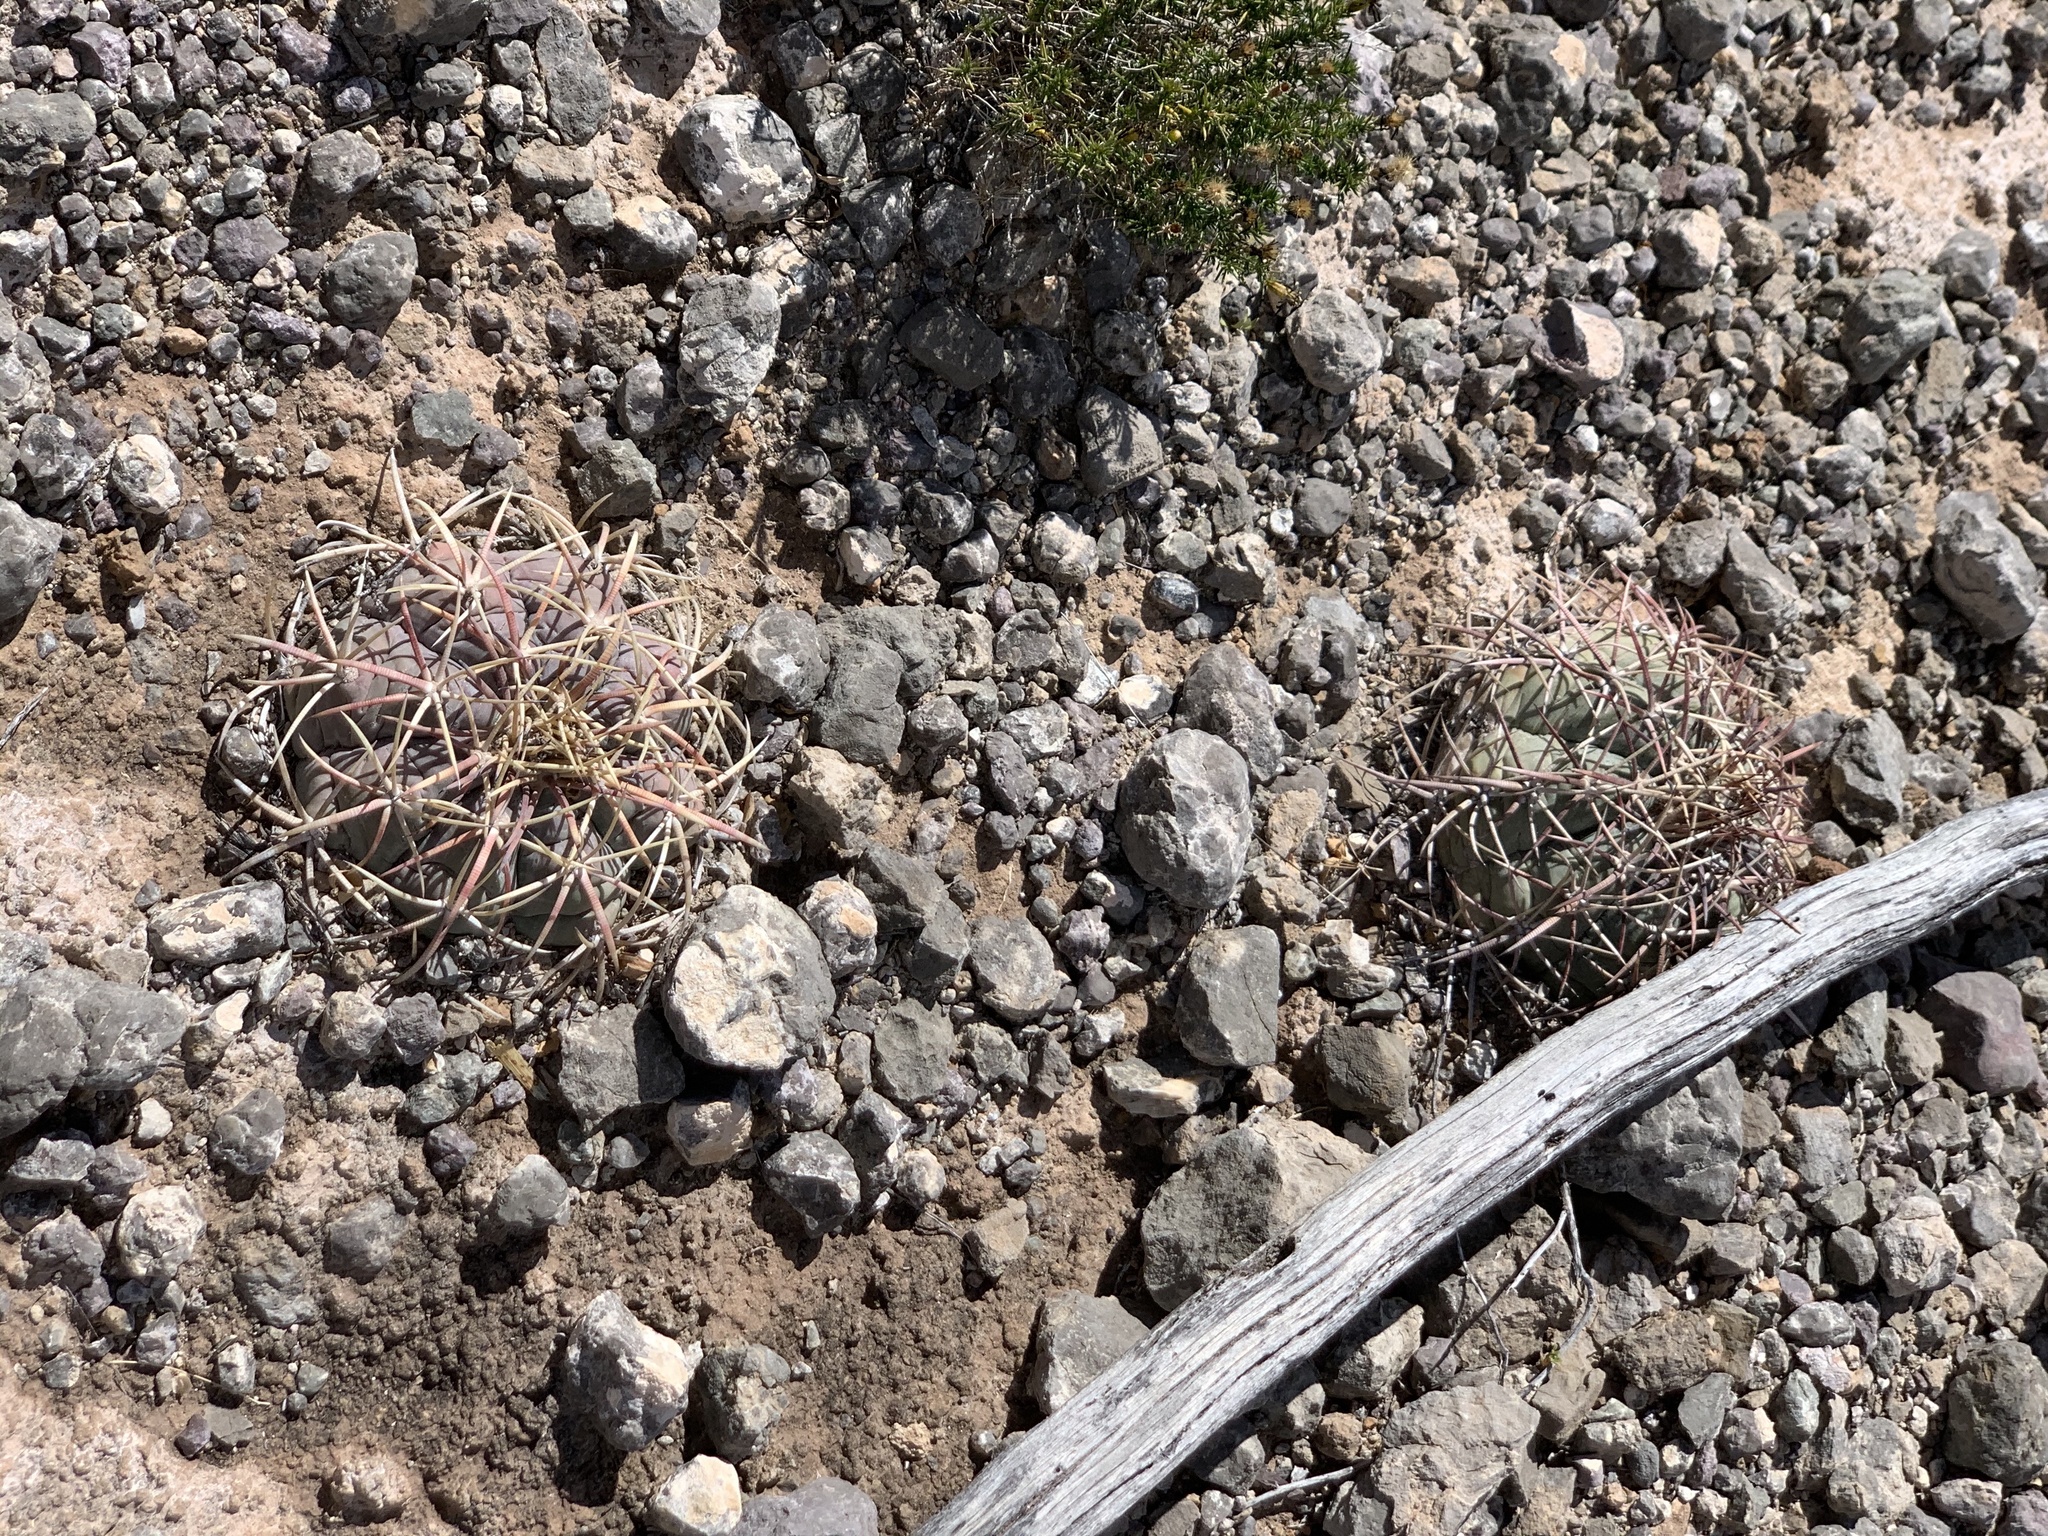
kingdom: Plantae
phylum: Tracheophyta
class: Magnoliopsida
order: Caryophyllales
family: Cactaceae
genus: Echinocactus
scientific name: Echinocactus horizonthalonius
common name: Devilshead
